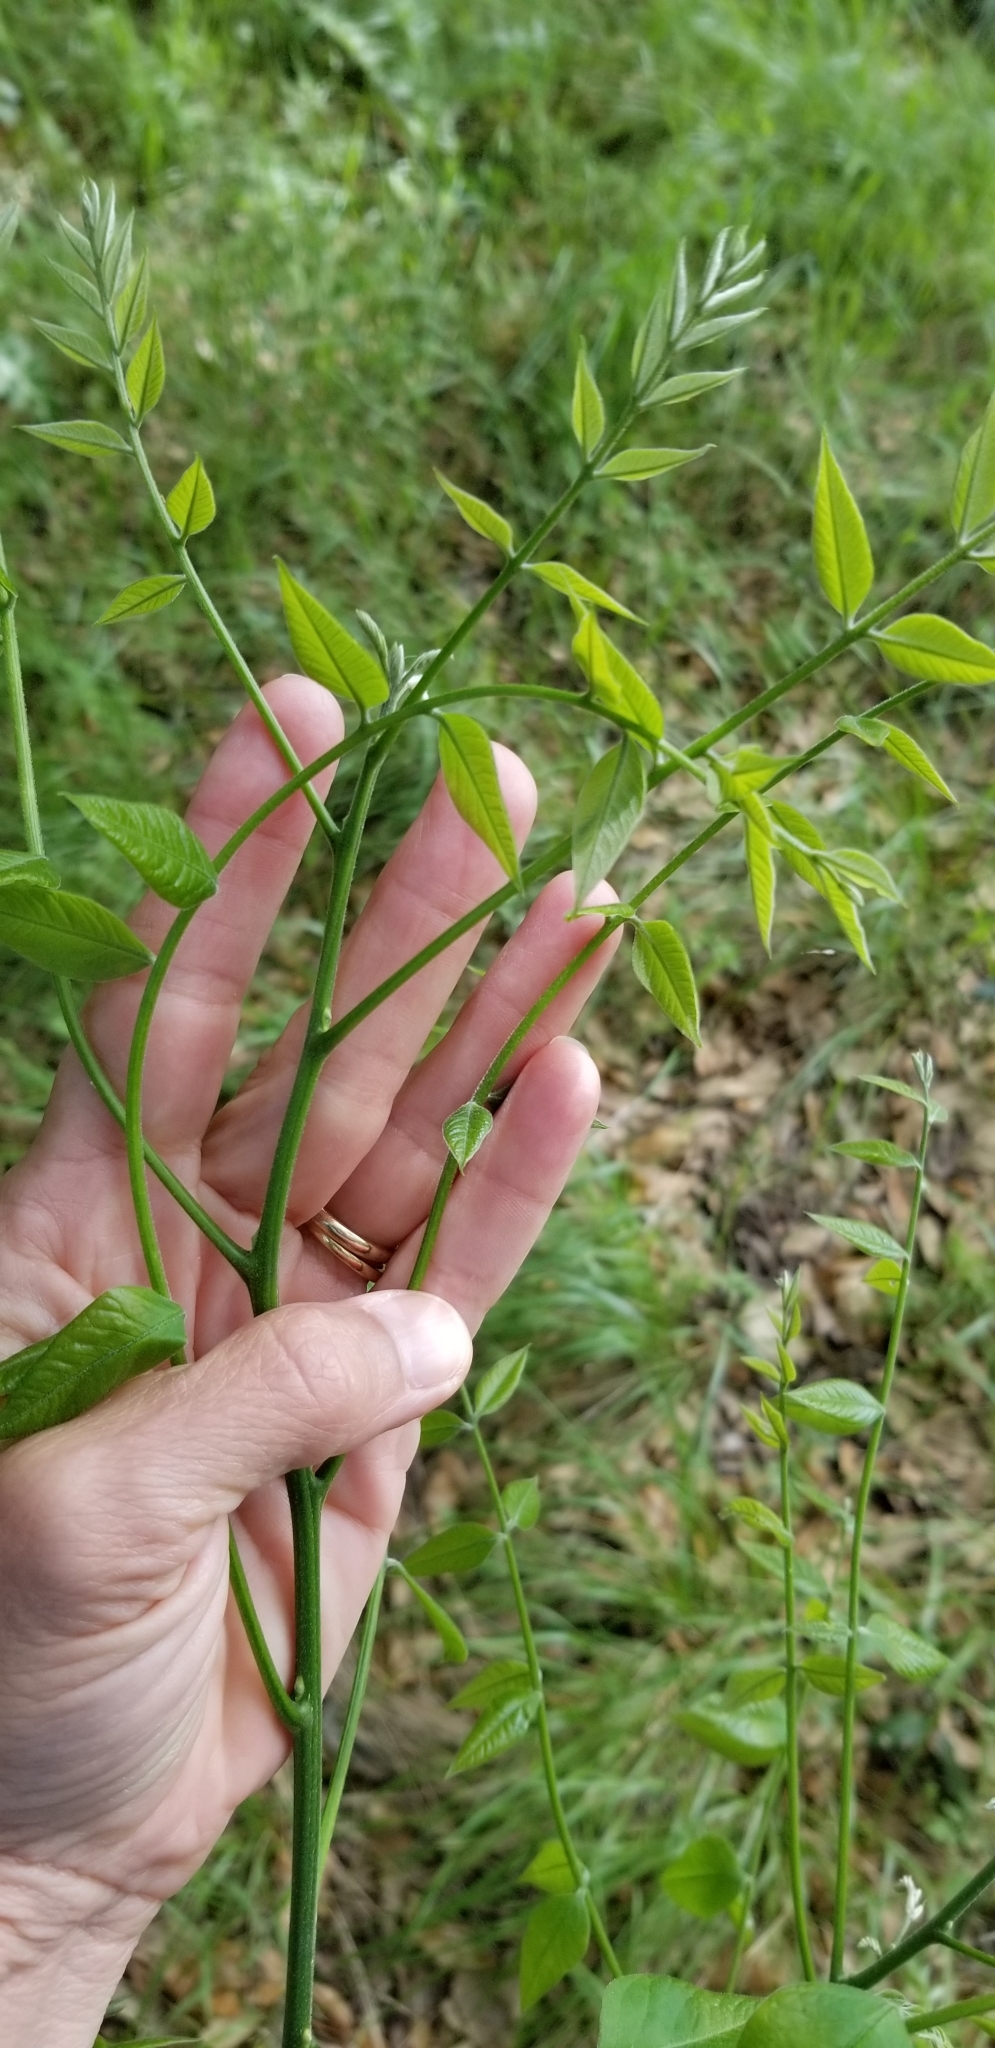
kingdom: Plantae
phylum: Tracheophyta
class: Magnoliopsida
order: Fabales
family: Fabaceae
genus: Styphnolobium
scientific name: Styphnolobium affine
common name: Texas sophora
